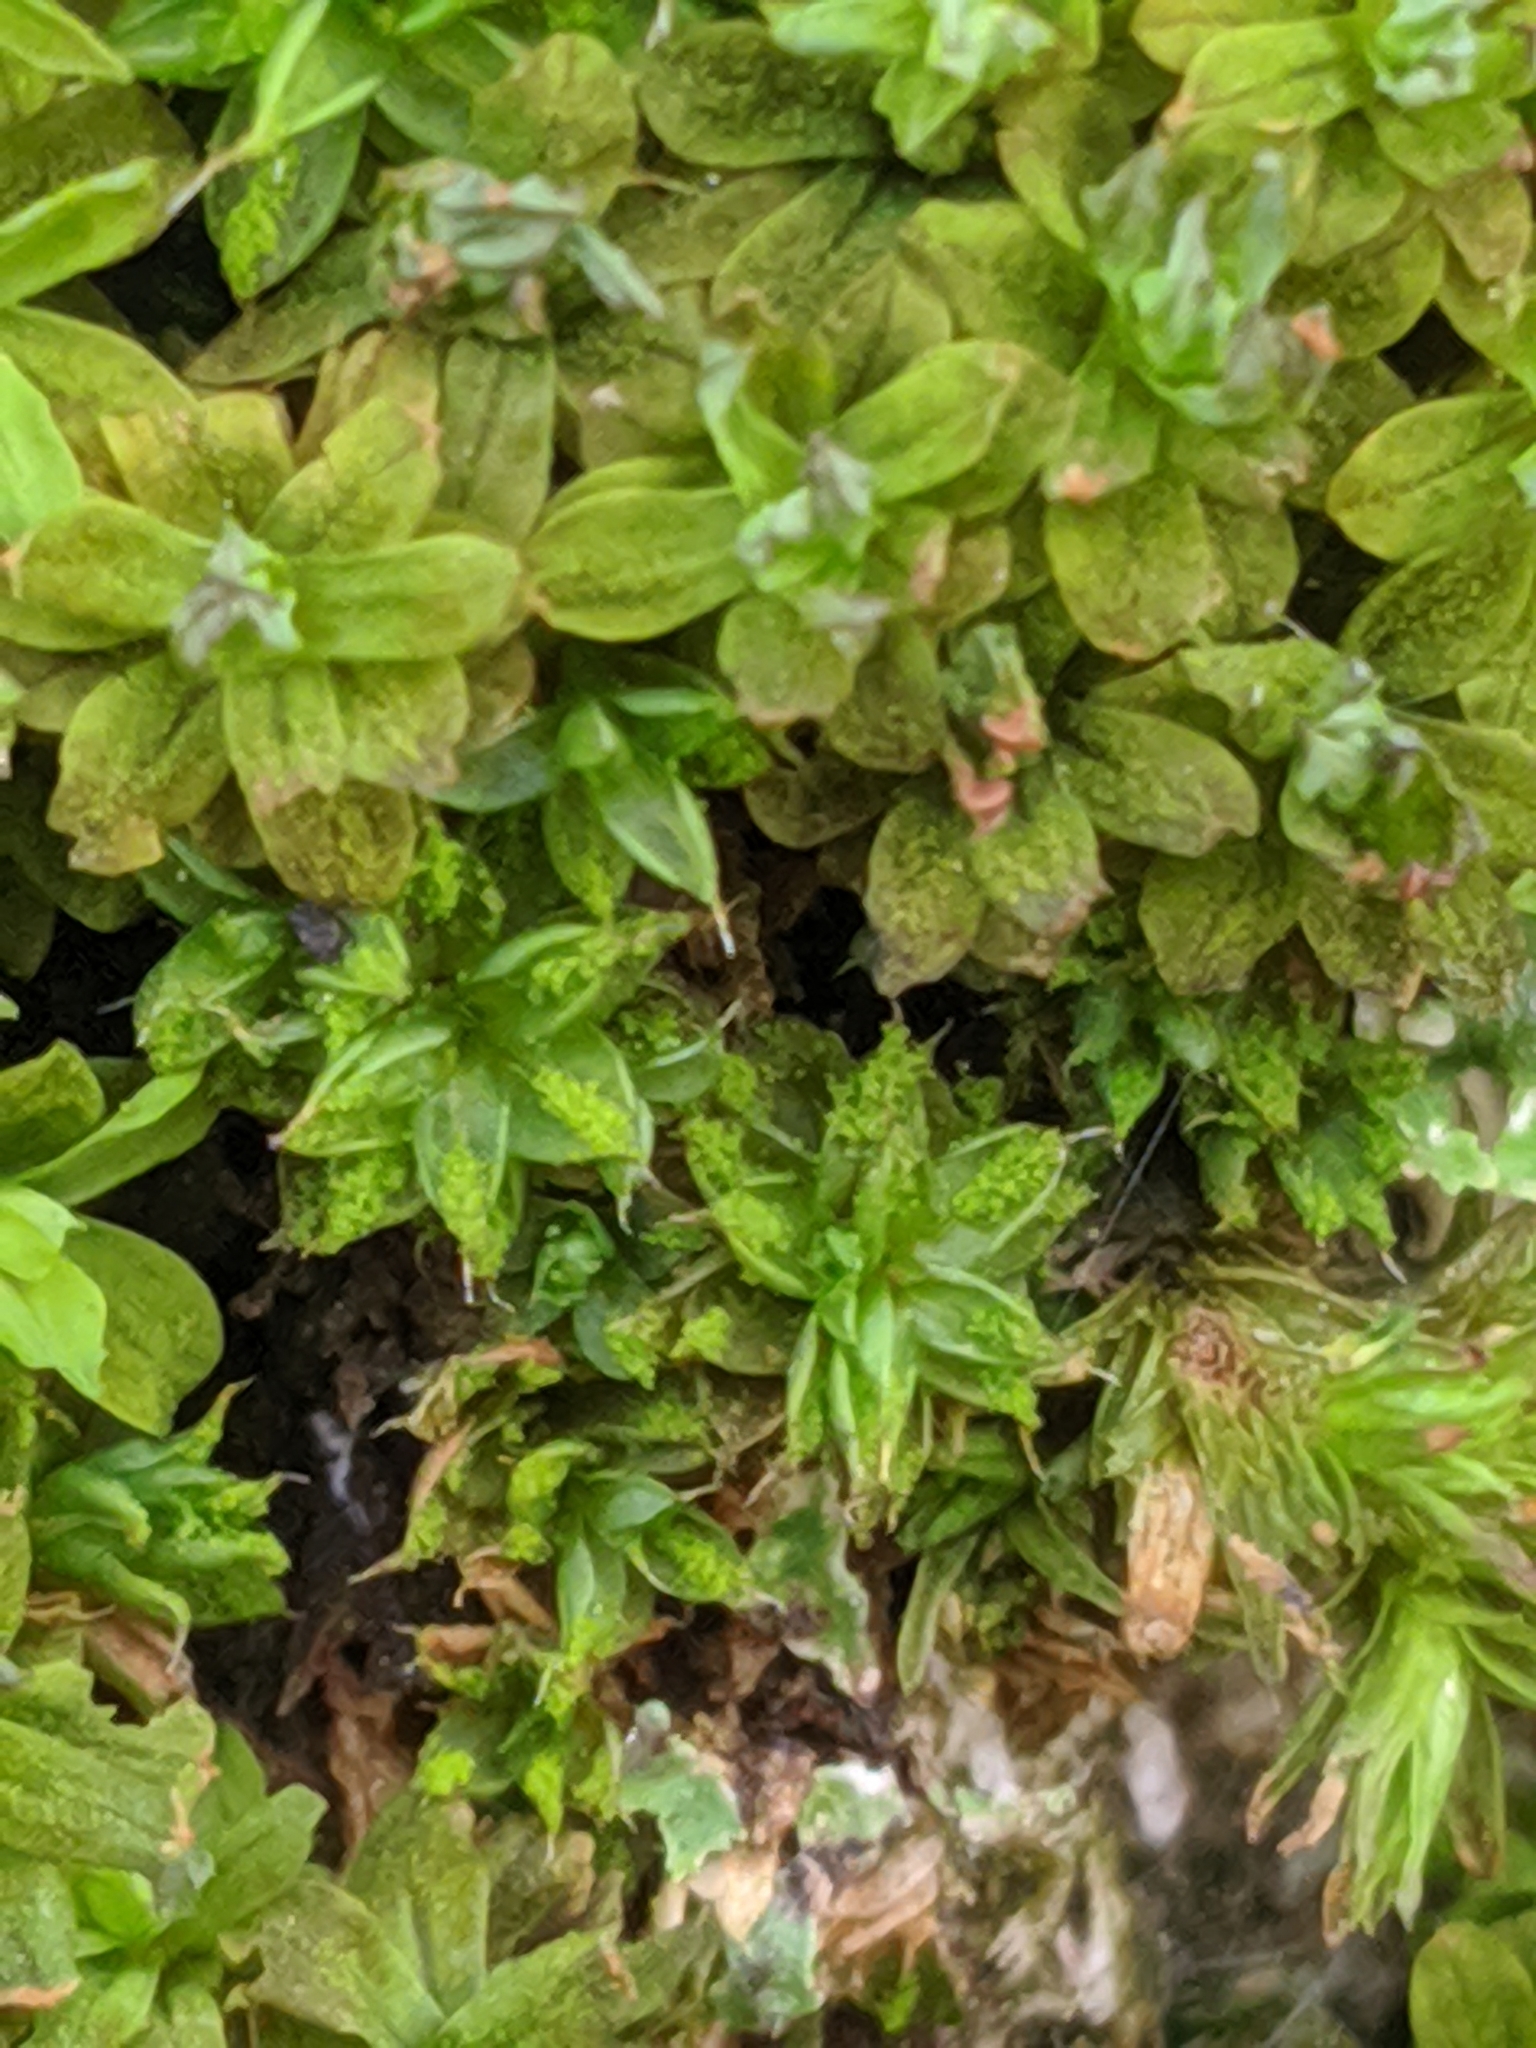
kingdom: Plantae
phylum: Bryophyta
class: Bryopsida
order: Pottiales
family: Pottiaceae
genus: Syntrichia
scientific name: Syntrichia papillosa
